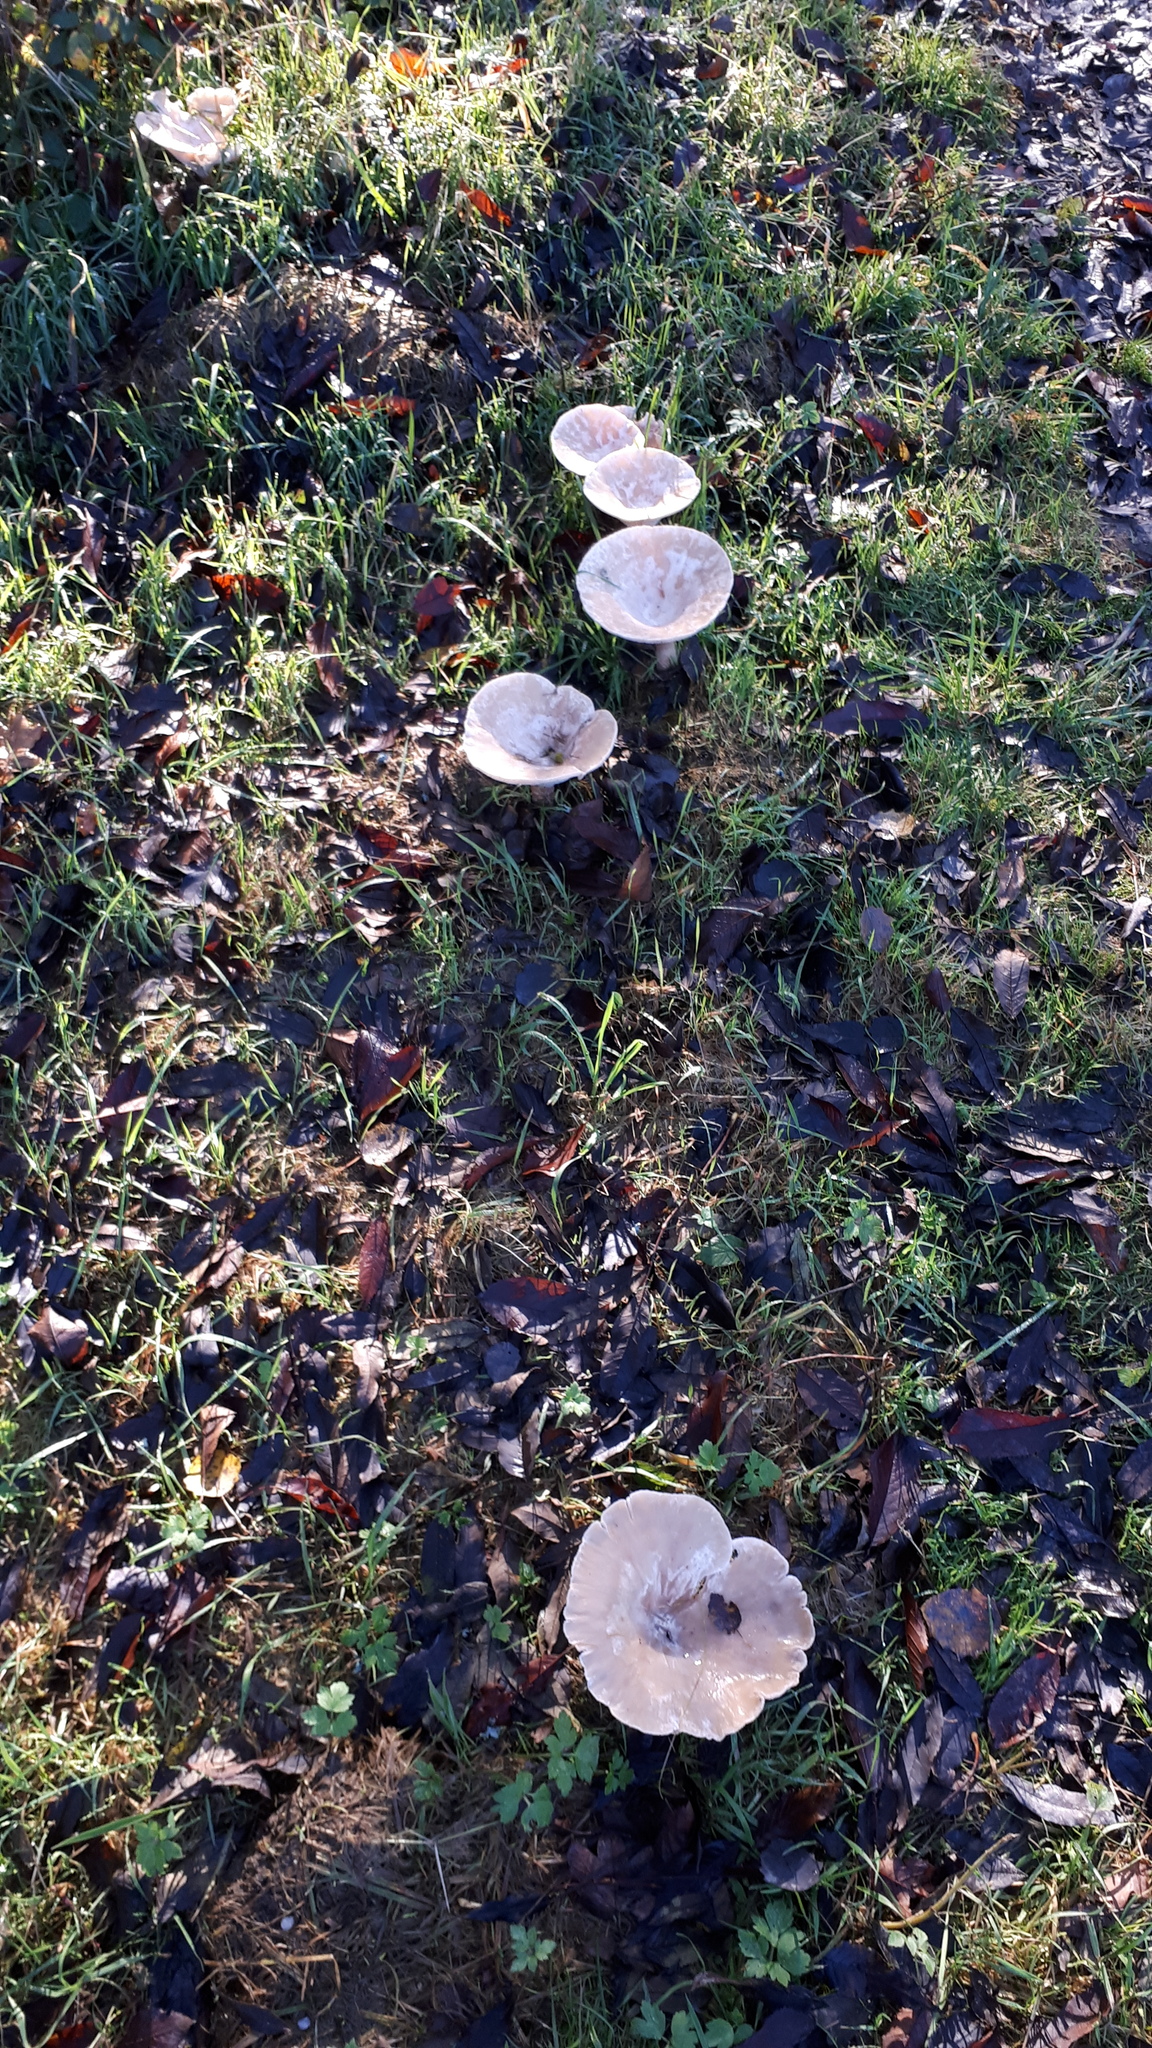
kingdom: Fungi
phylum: Basidiomycota
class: Agaricomycetes
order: Agaricales
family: Tricholomataceae
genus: Infundibulicybe
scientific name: Infundibulicybe geotropa
